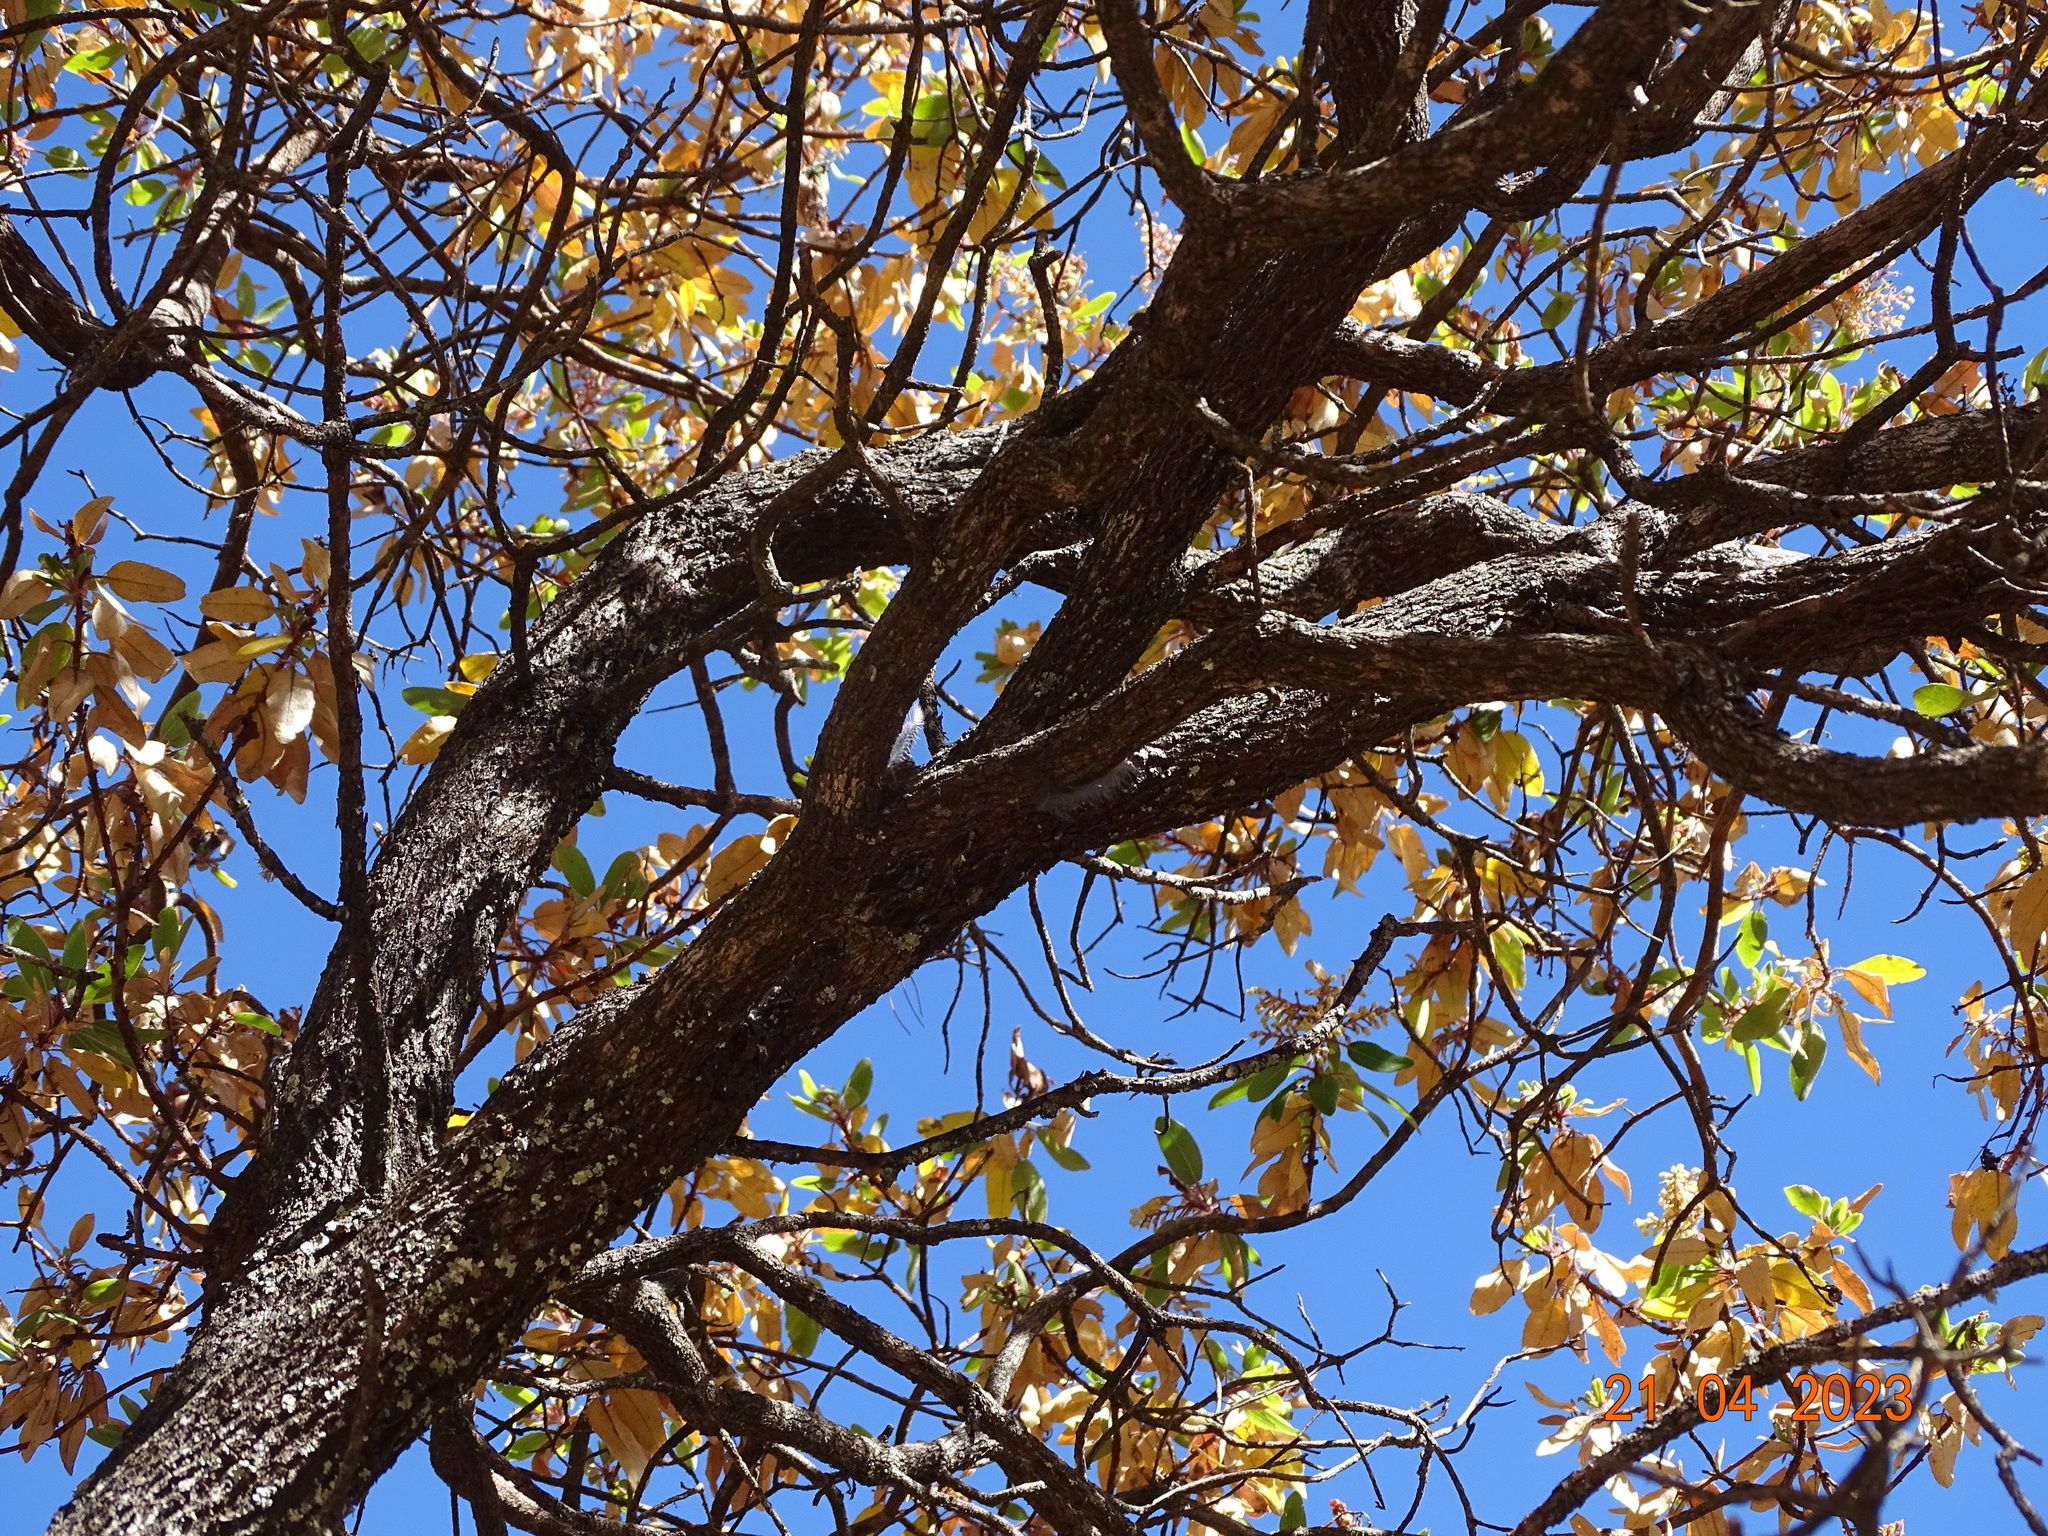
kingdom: Plantae
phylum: Tracheophyta
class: Magnoliopsida
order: Ericales
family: Ericaceae
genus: Arbutus
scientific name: Arbutus tessellata
